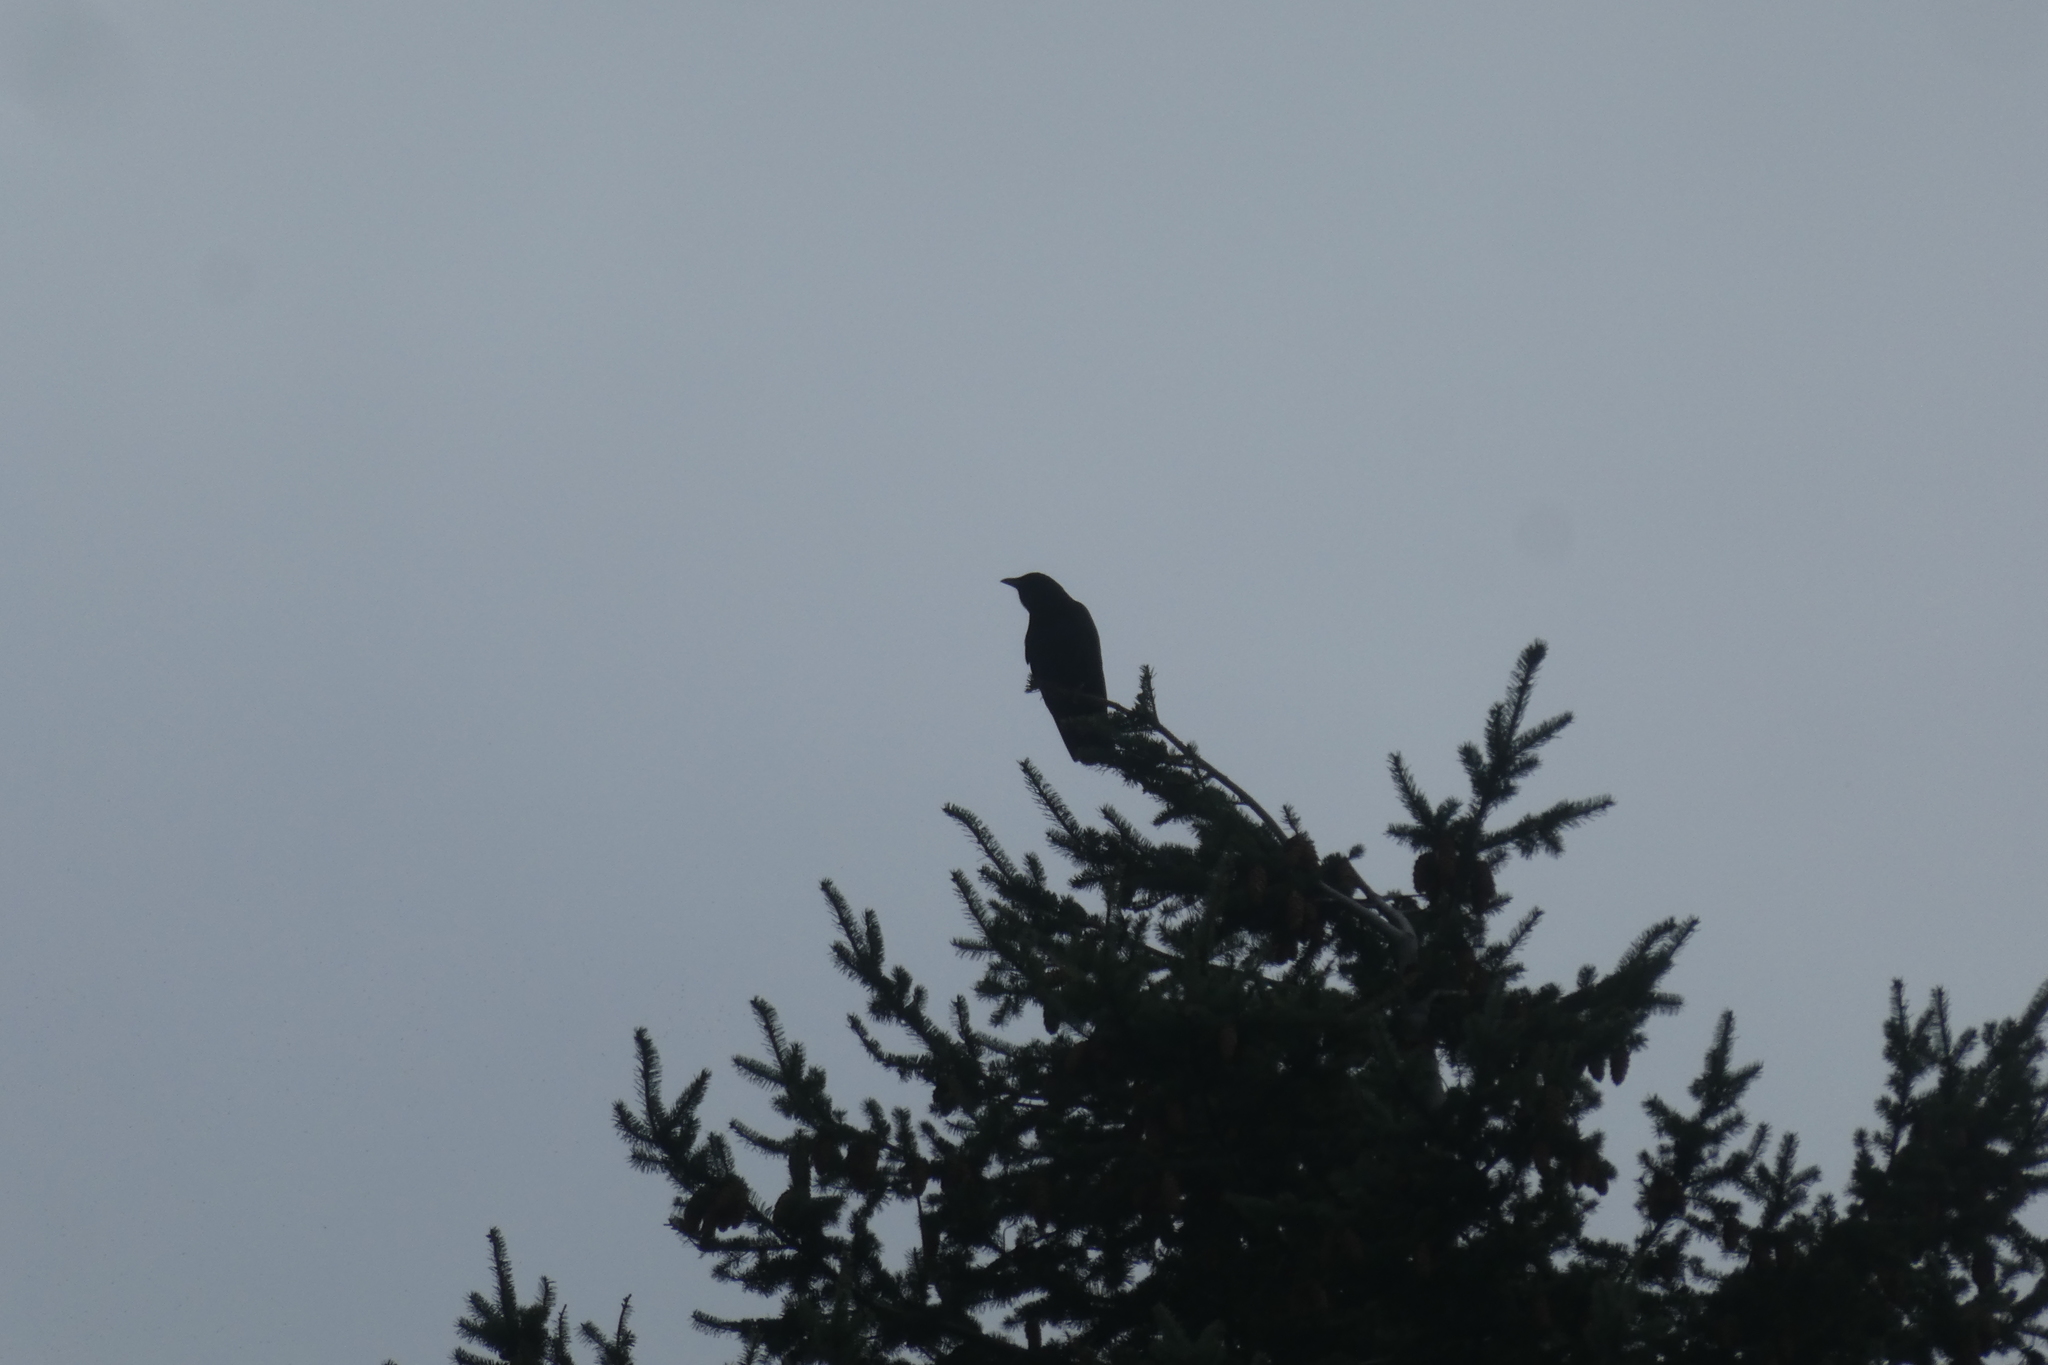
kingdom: Animalia
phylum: Chordata
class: Aves
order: Passeriformes
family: Corvidae
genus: Corvus
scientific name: Corvus brachyrhynchos
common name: American crow
